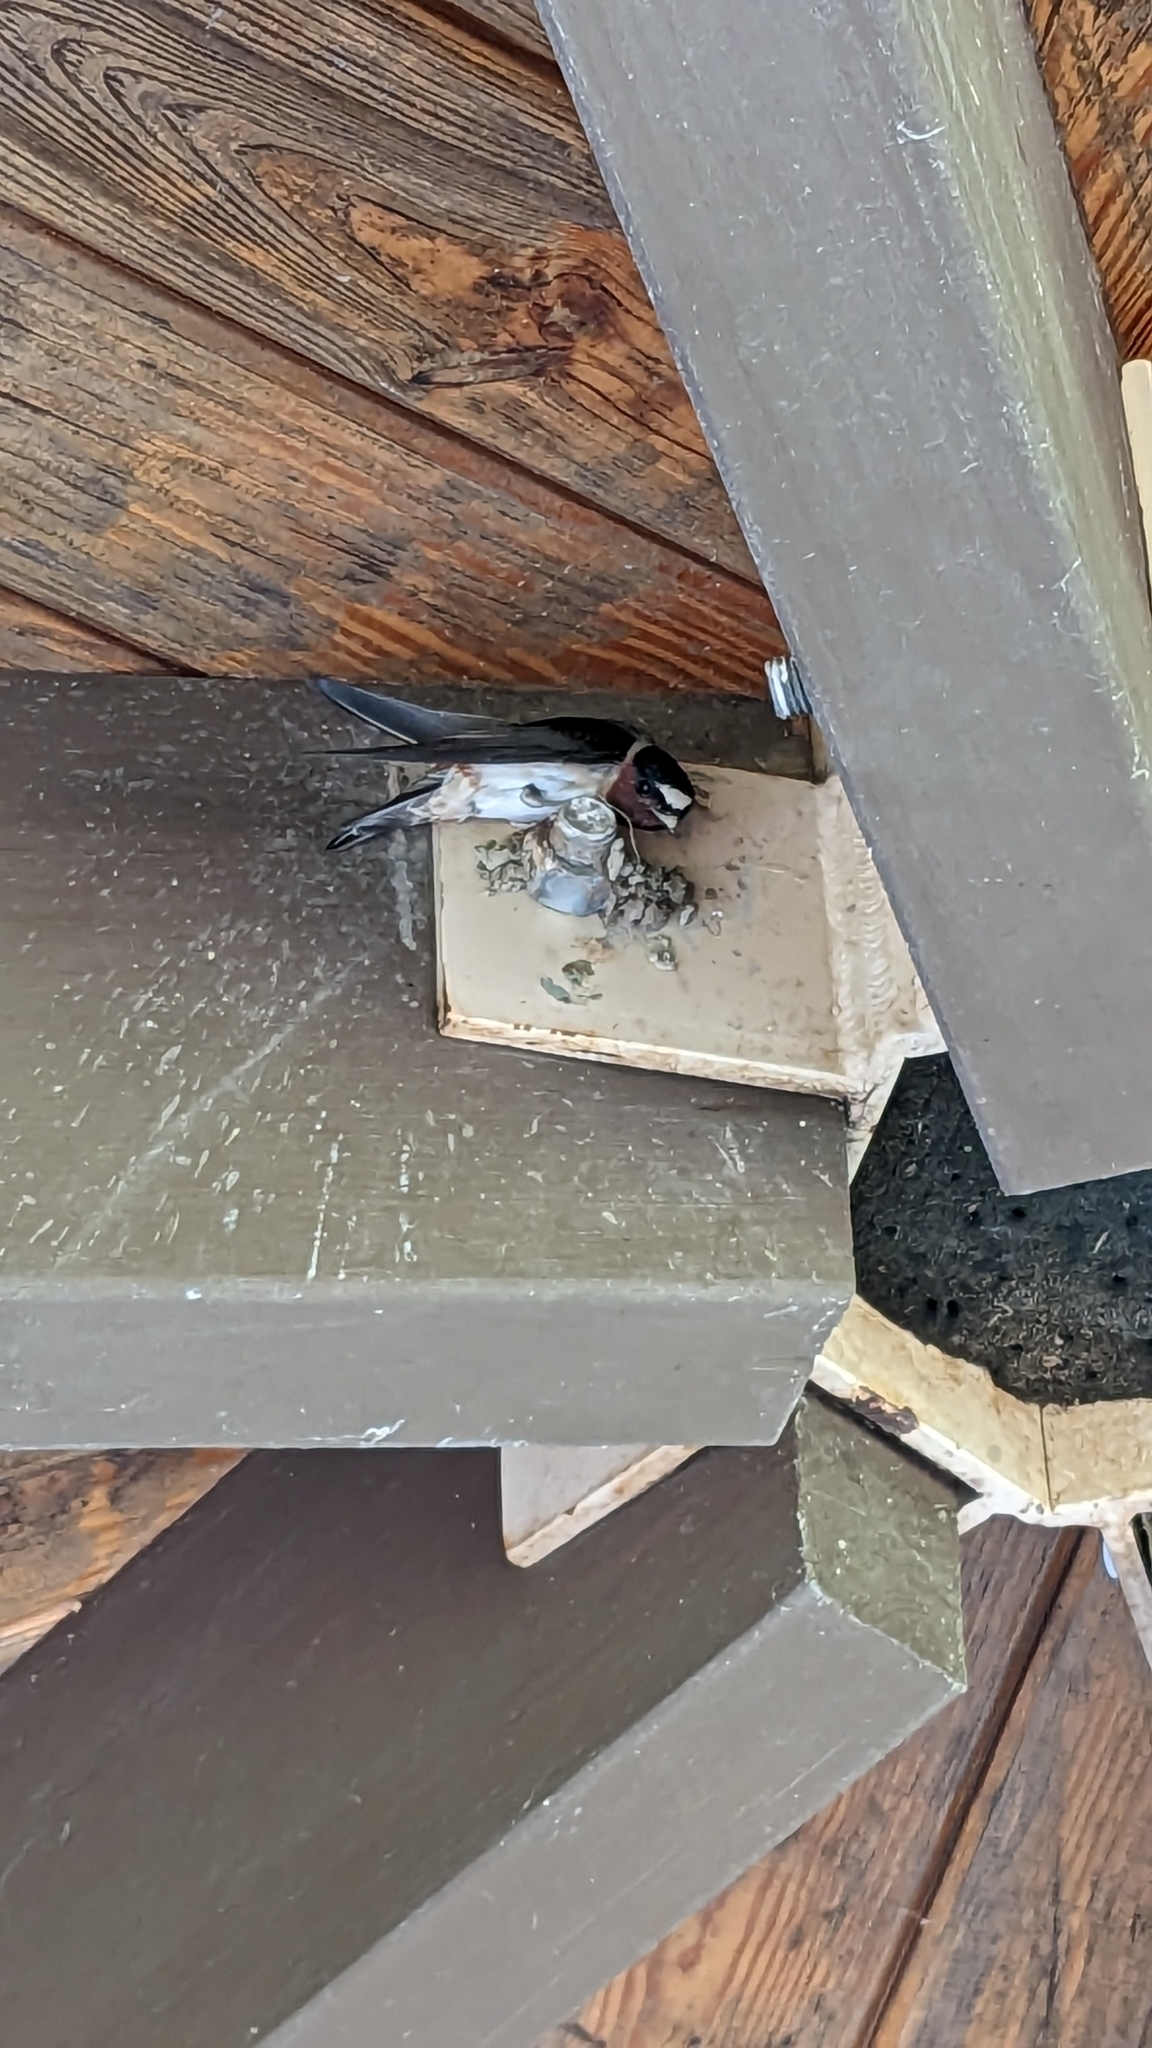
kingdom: Animalia
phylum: Chordata
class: Aves
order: Passeriformes
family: Hirundinidae
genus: Petrochelidon
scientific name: Petrochelidon pyrrhonota
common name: American cliff swallow
